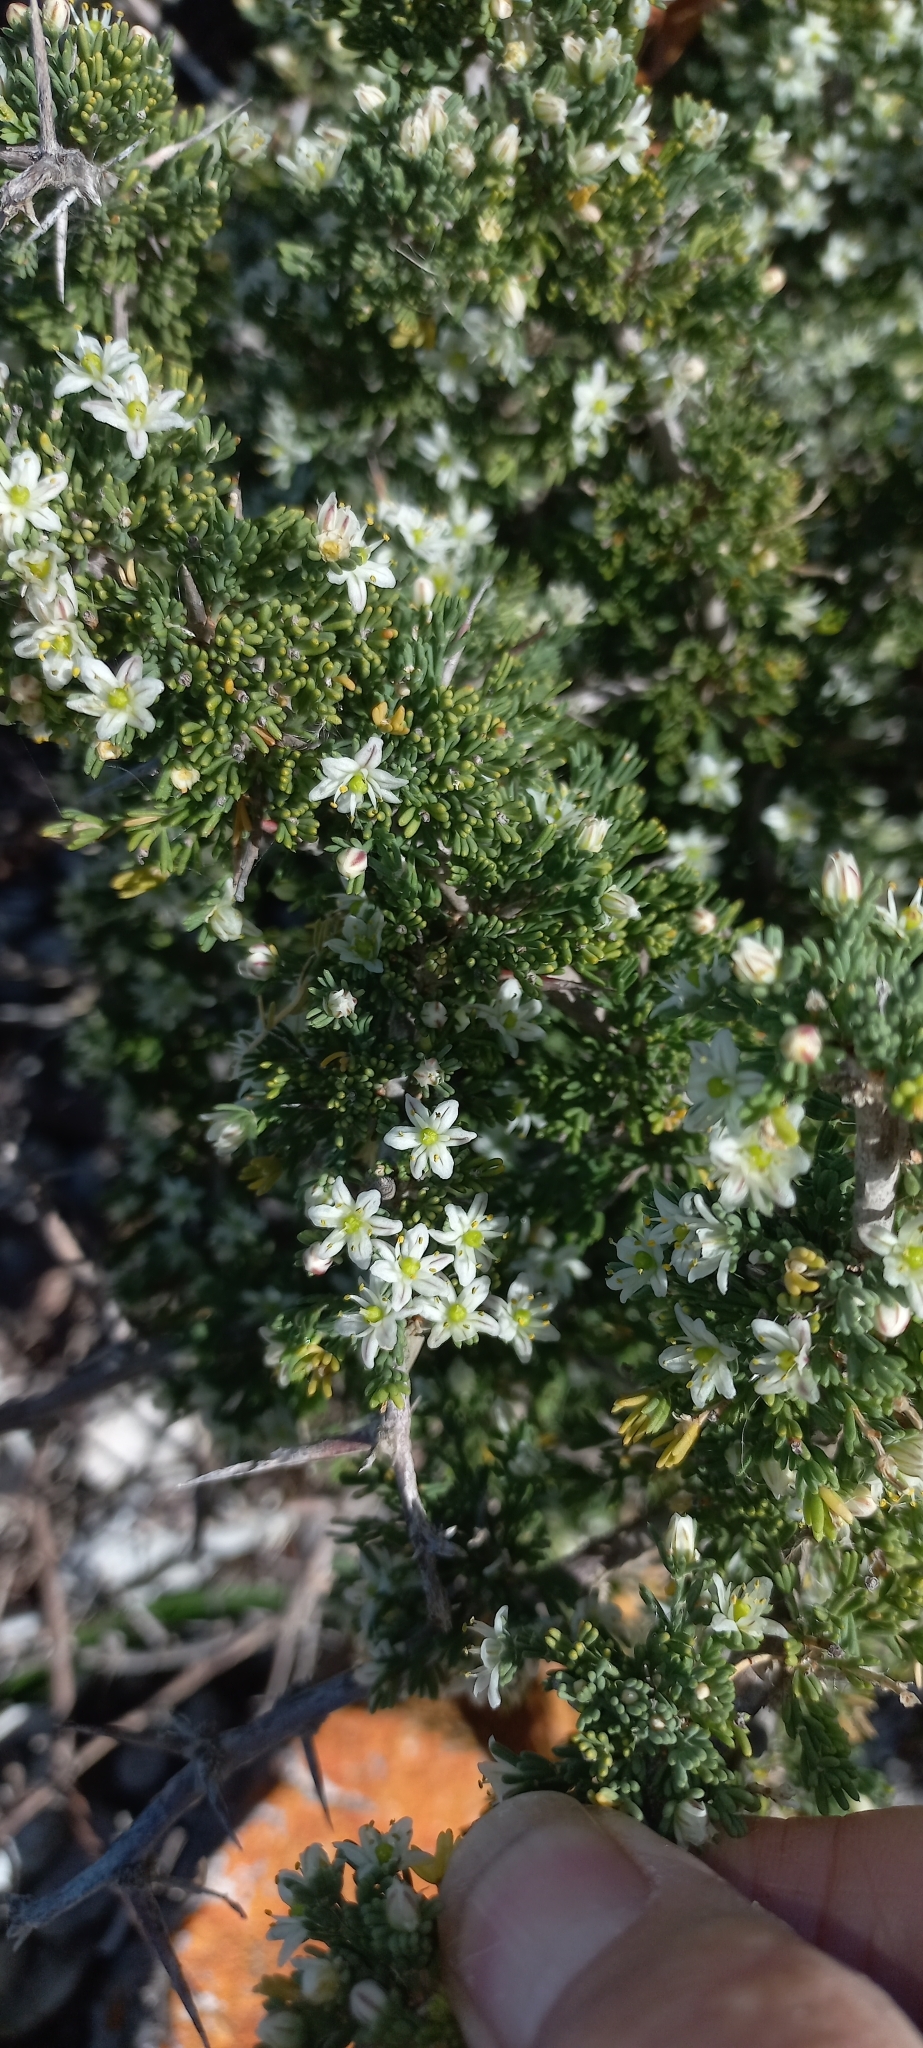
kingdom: Plantae
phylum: Tracheophyta
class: Liliopsida
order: Asparagales
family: Asparagaceae
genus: Asparagus
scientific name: Asparagus capensis
